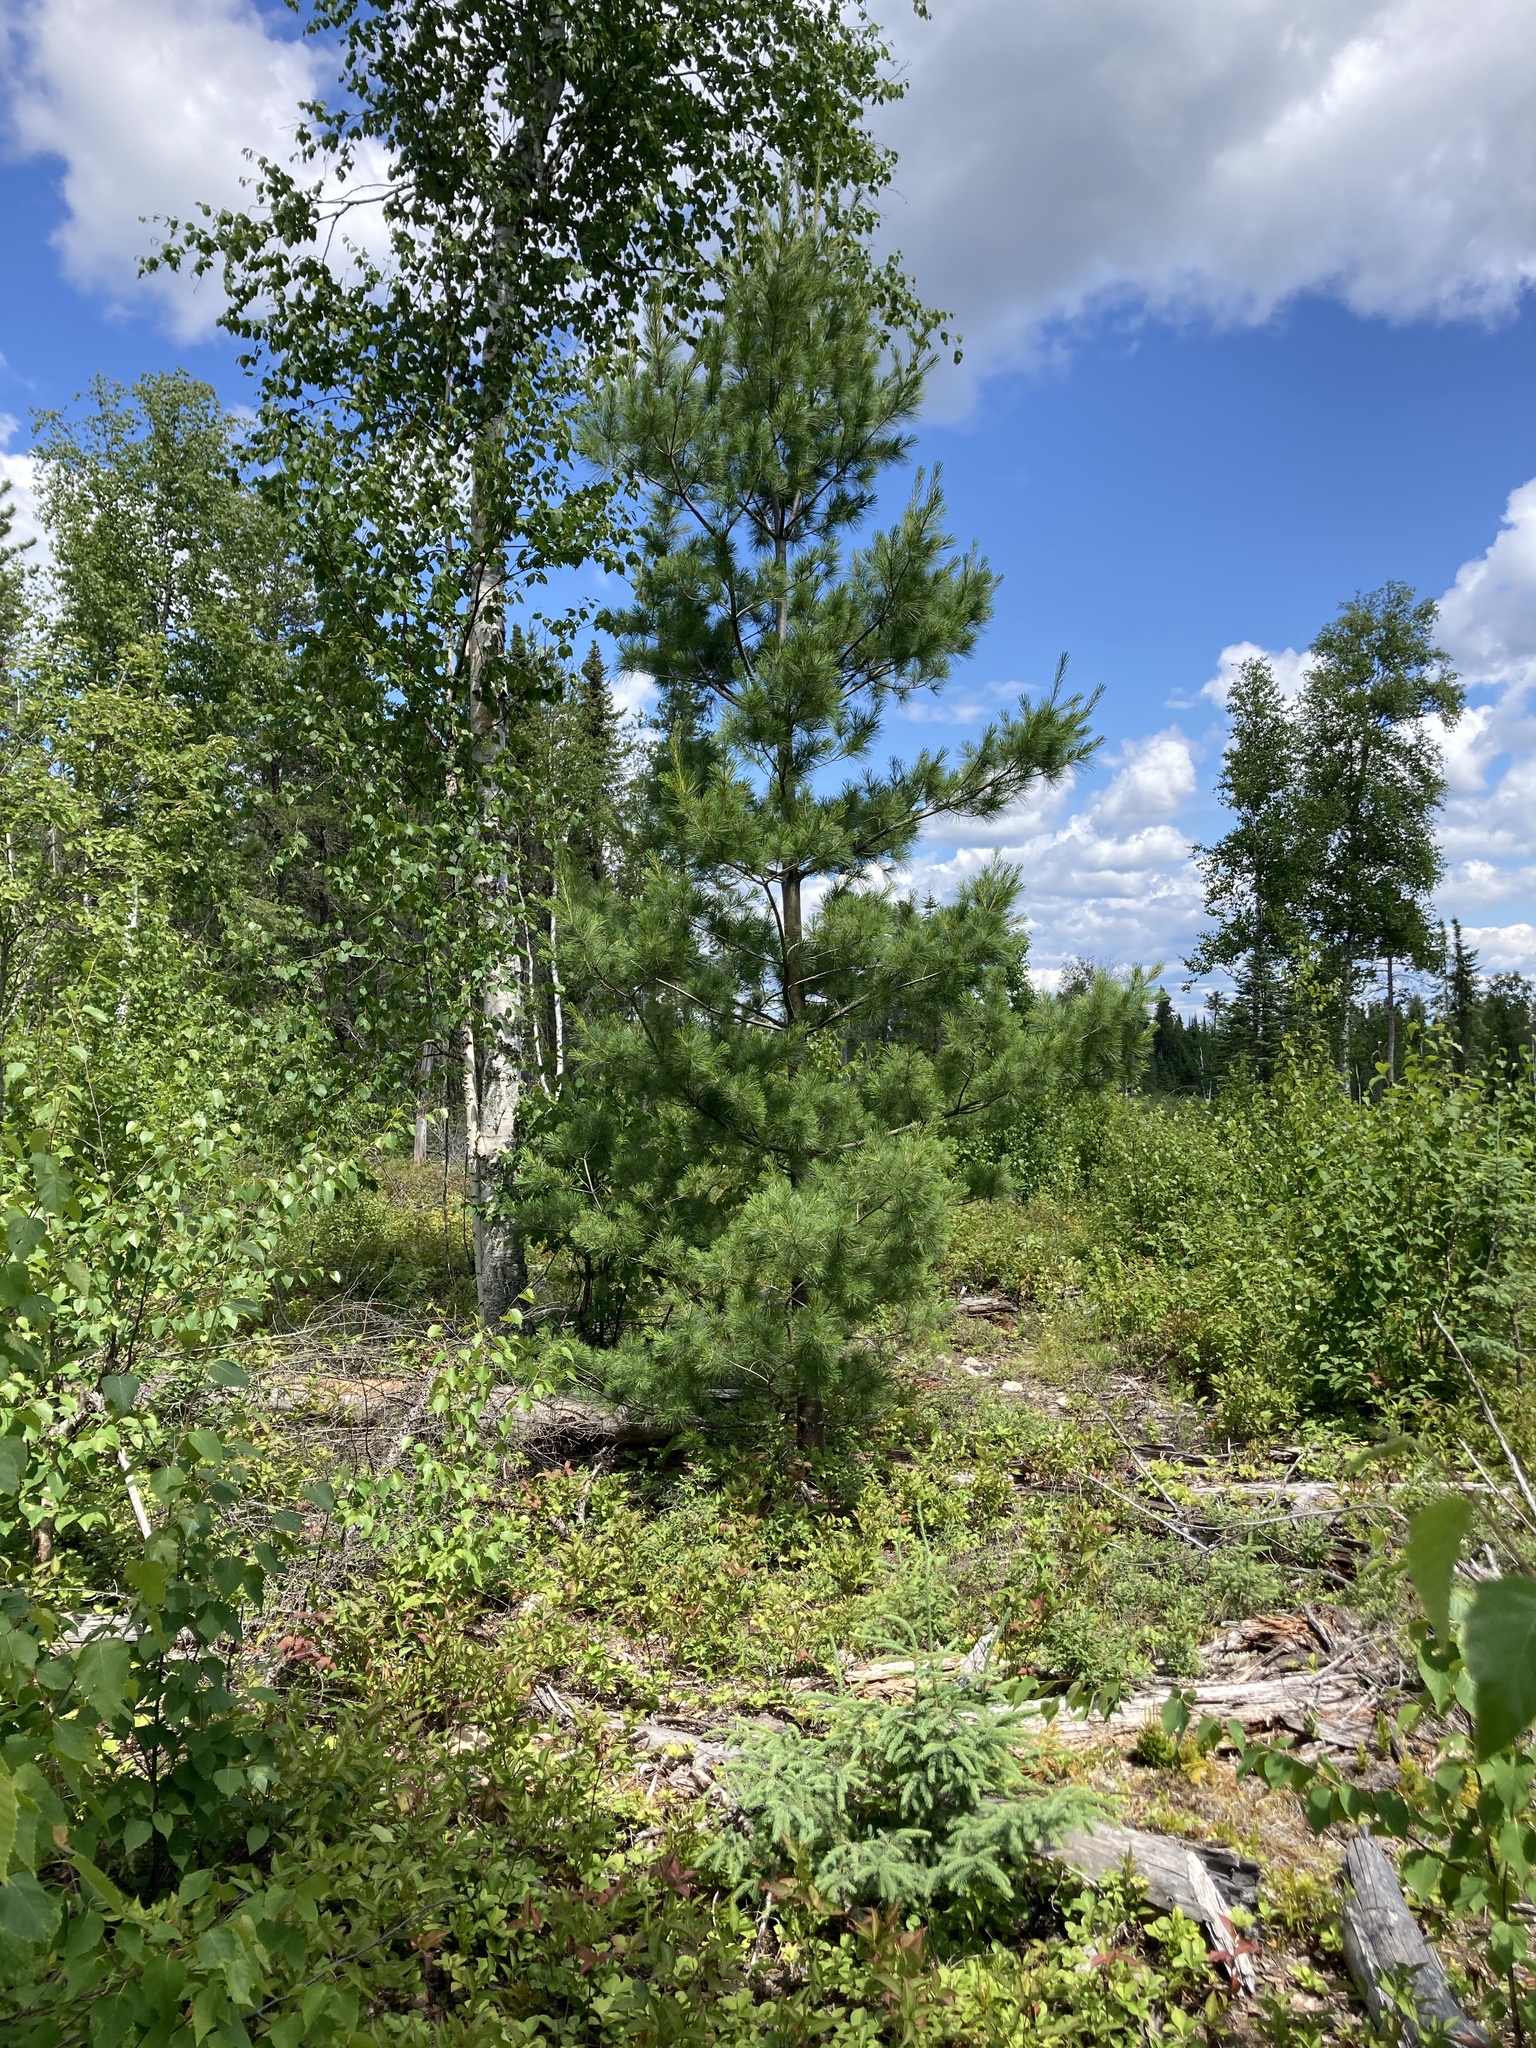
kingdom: Plantae
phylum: Tracheophyta
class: Pinopsida
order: Pinales
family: Pinaceae
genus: Pinus
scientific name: Pinus strobus
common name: Weymouth pine
